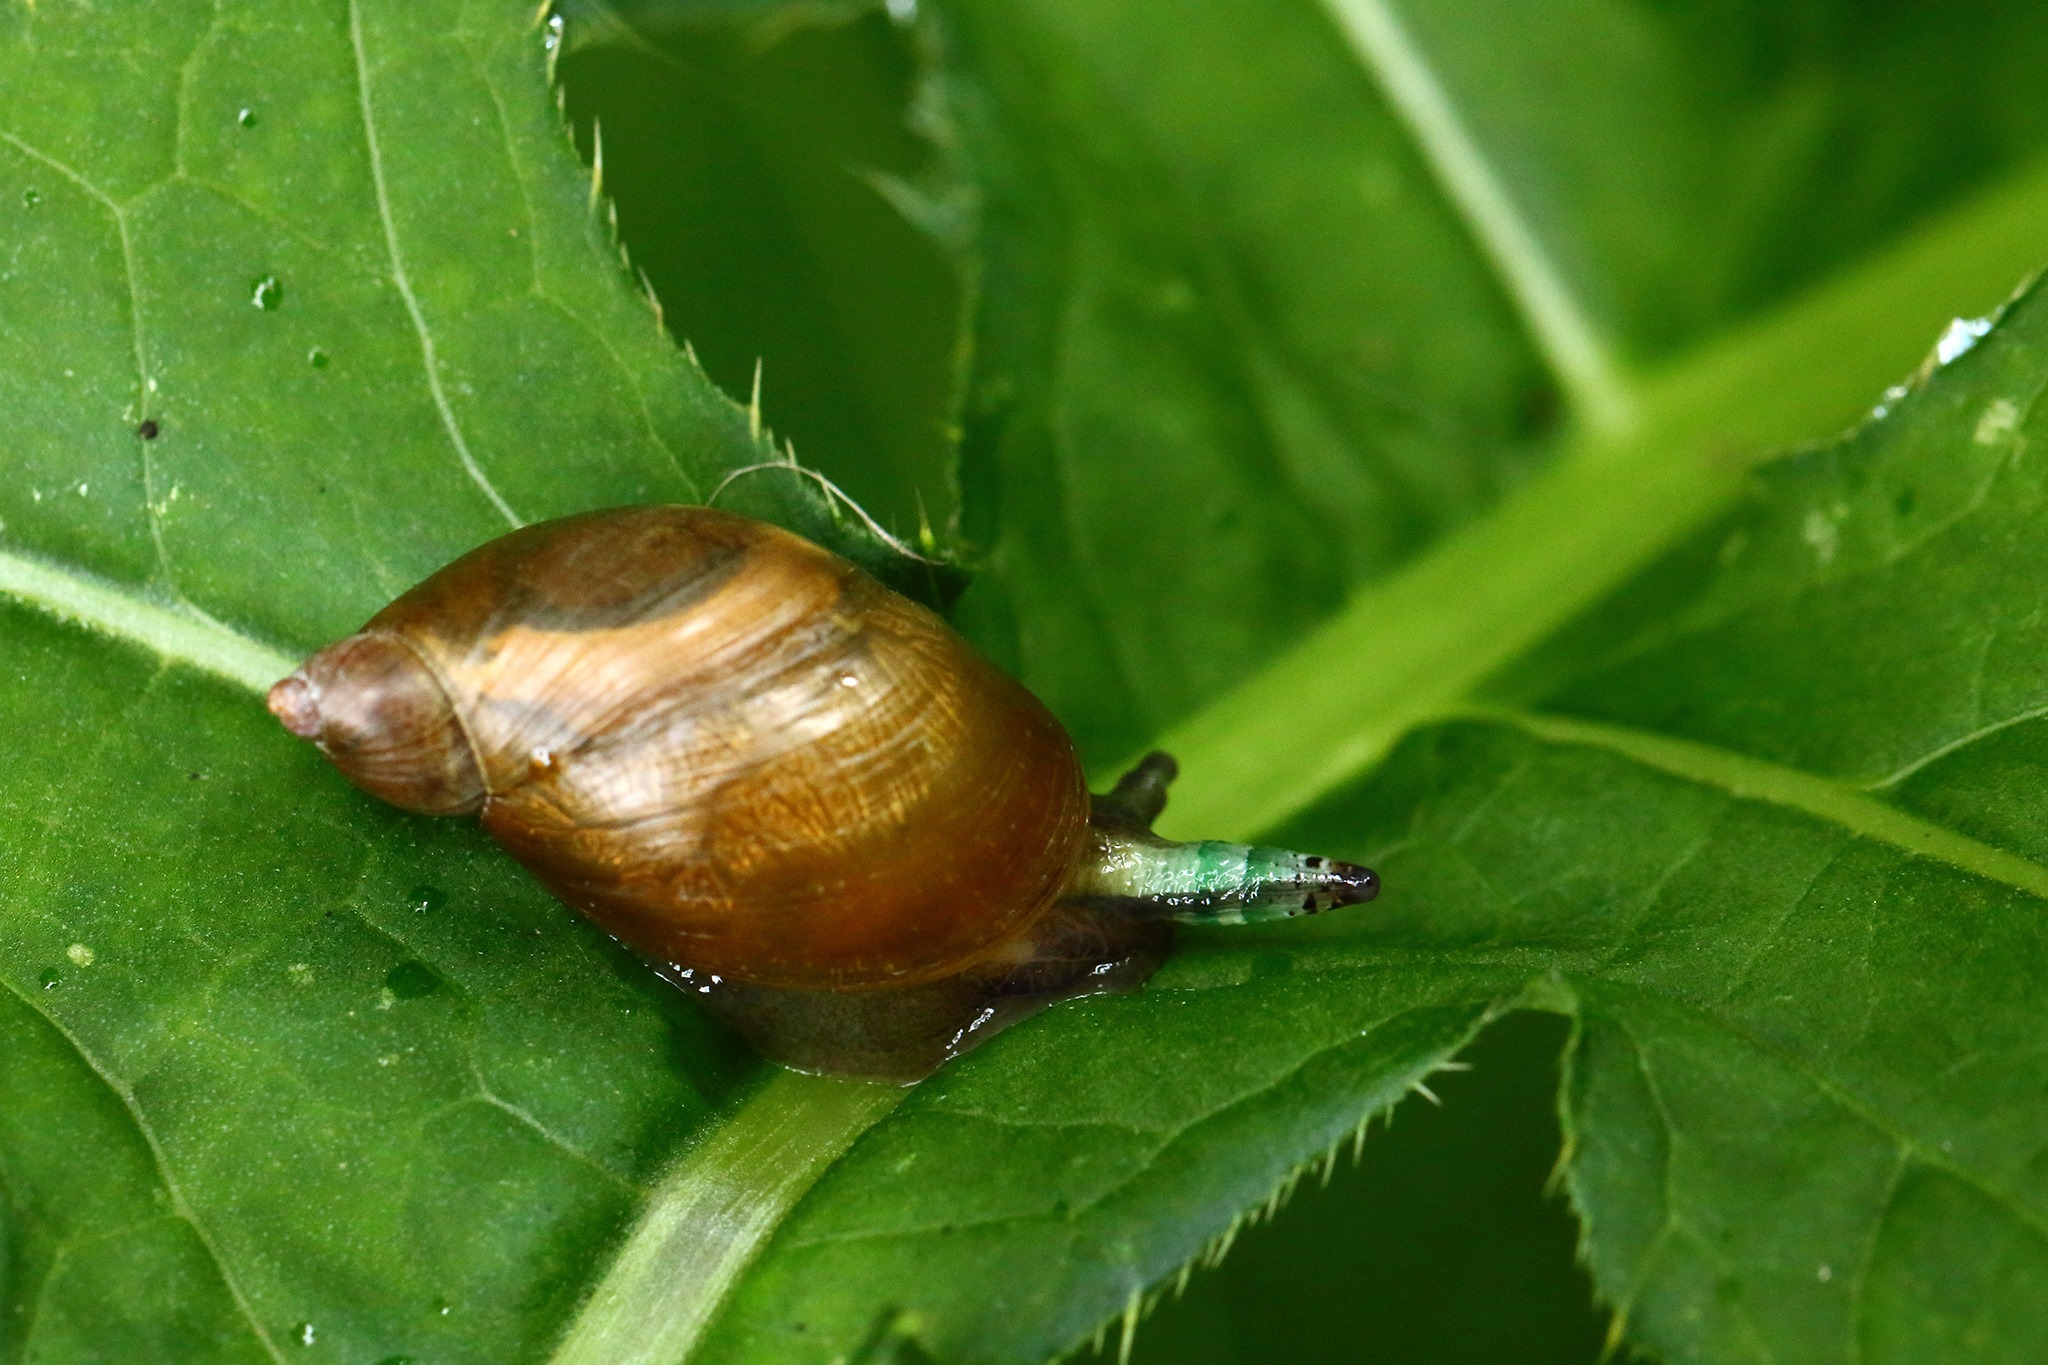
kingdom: Animalia
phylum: Platyhelminthes
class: Trematoda
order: Diplostomida
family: Leucochloridiidae
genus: Leucochloridium
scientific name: Leucochloridium paradoxum
